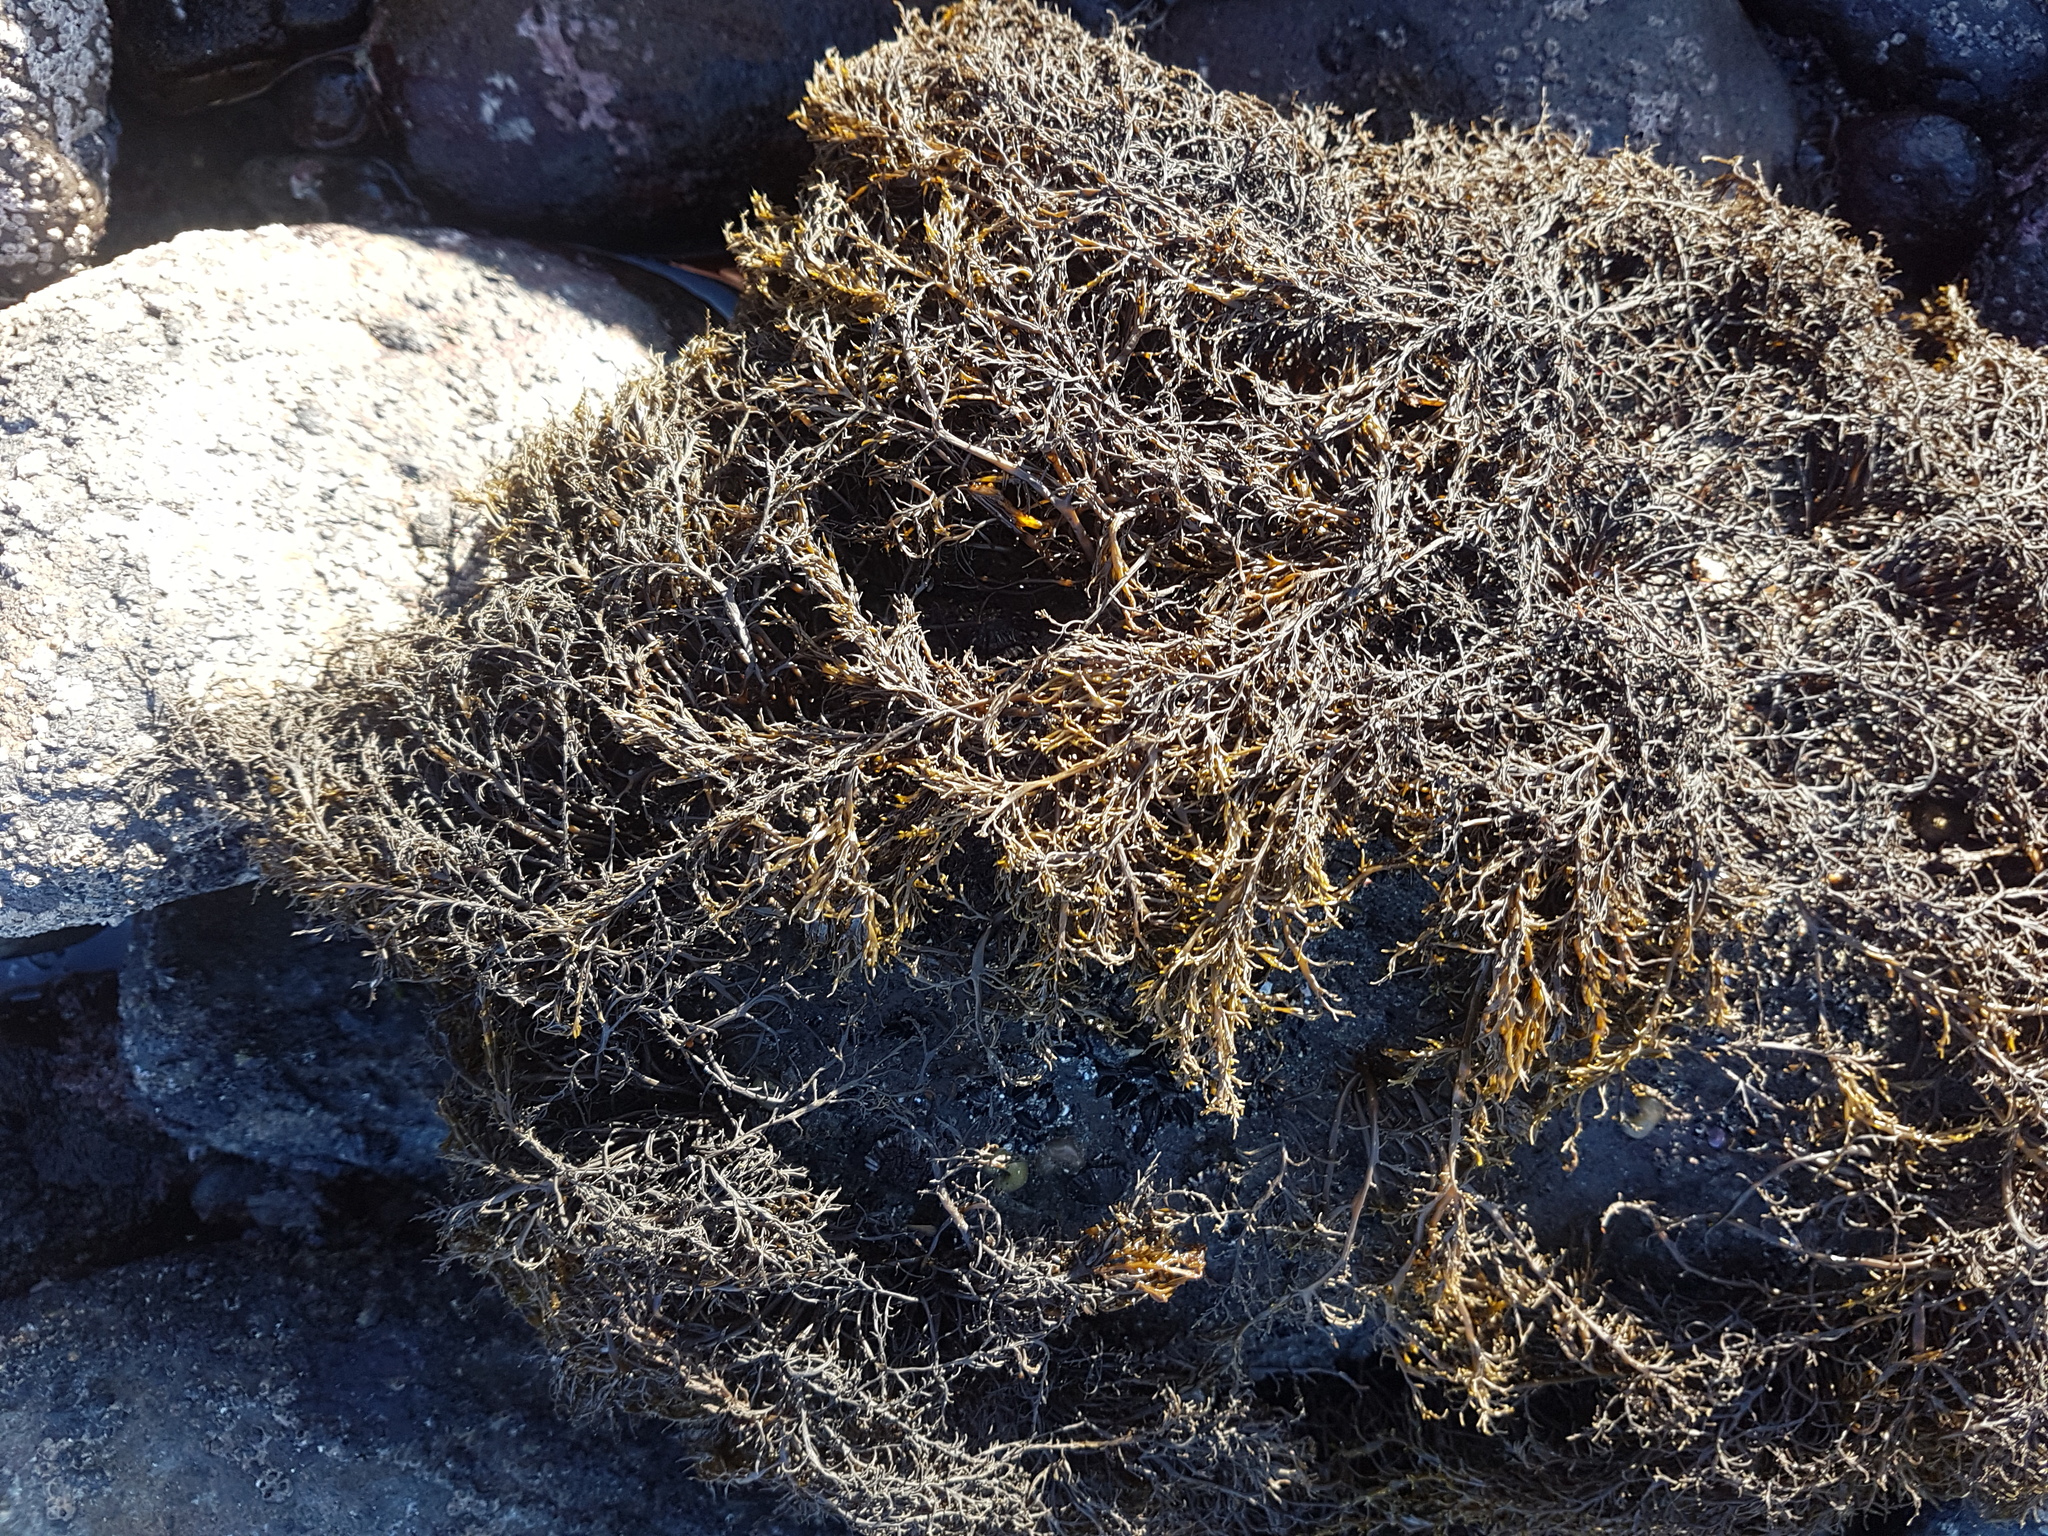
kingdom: Chromista
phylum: Ochrophyta
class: Phaeophyceae
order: Scytothamnales
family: Scytothamnaceae
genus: Scytothamnus
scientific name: Scytothamnus australis
